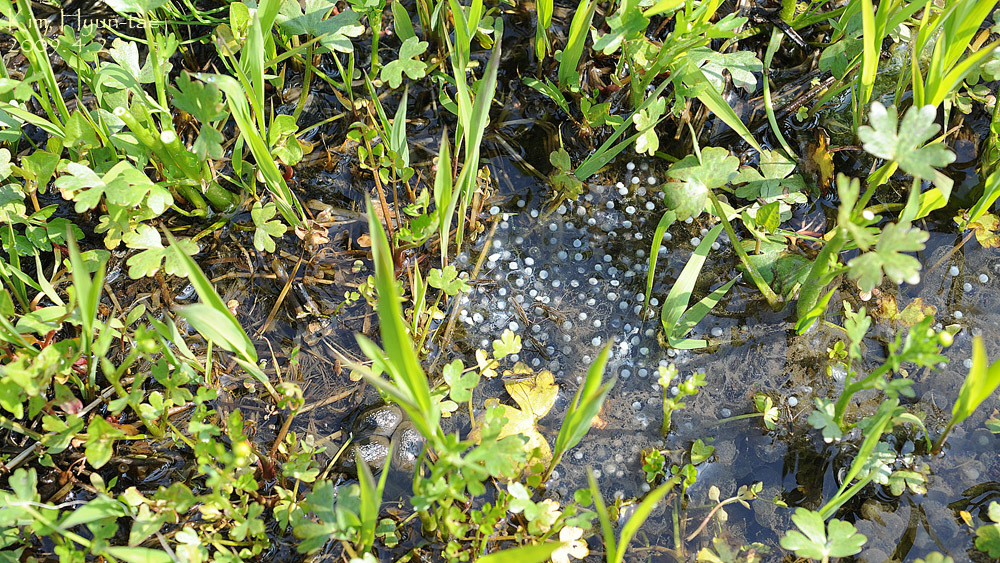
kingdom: Animalia
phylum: Chordata
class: Amphibia
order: Anura
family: Ranidae
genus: Pelophylax
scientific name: Pelophylax nigromaculatus
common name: Black-spotted pond frog
